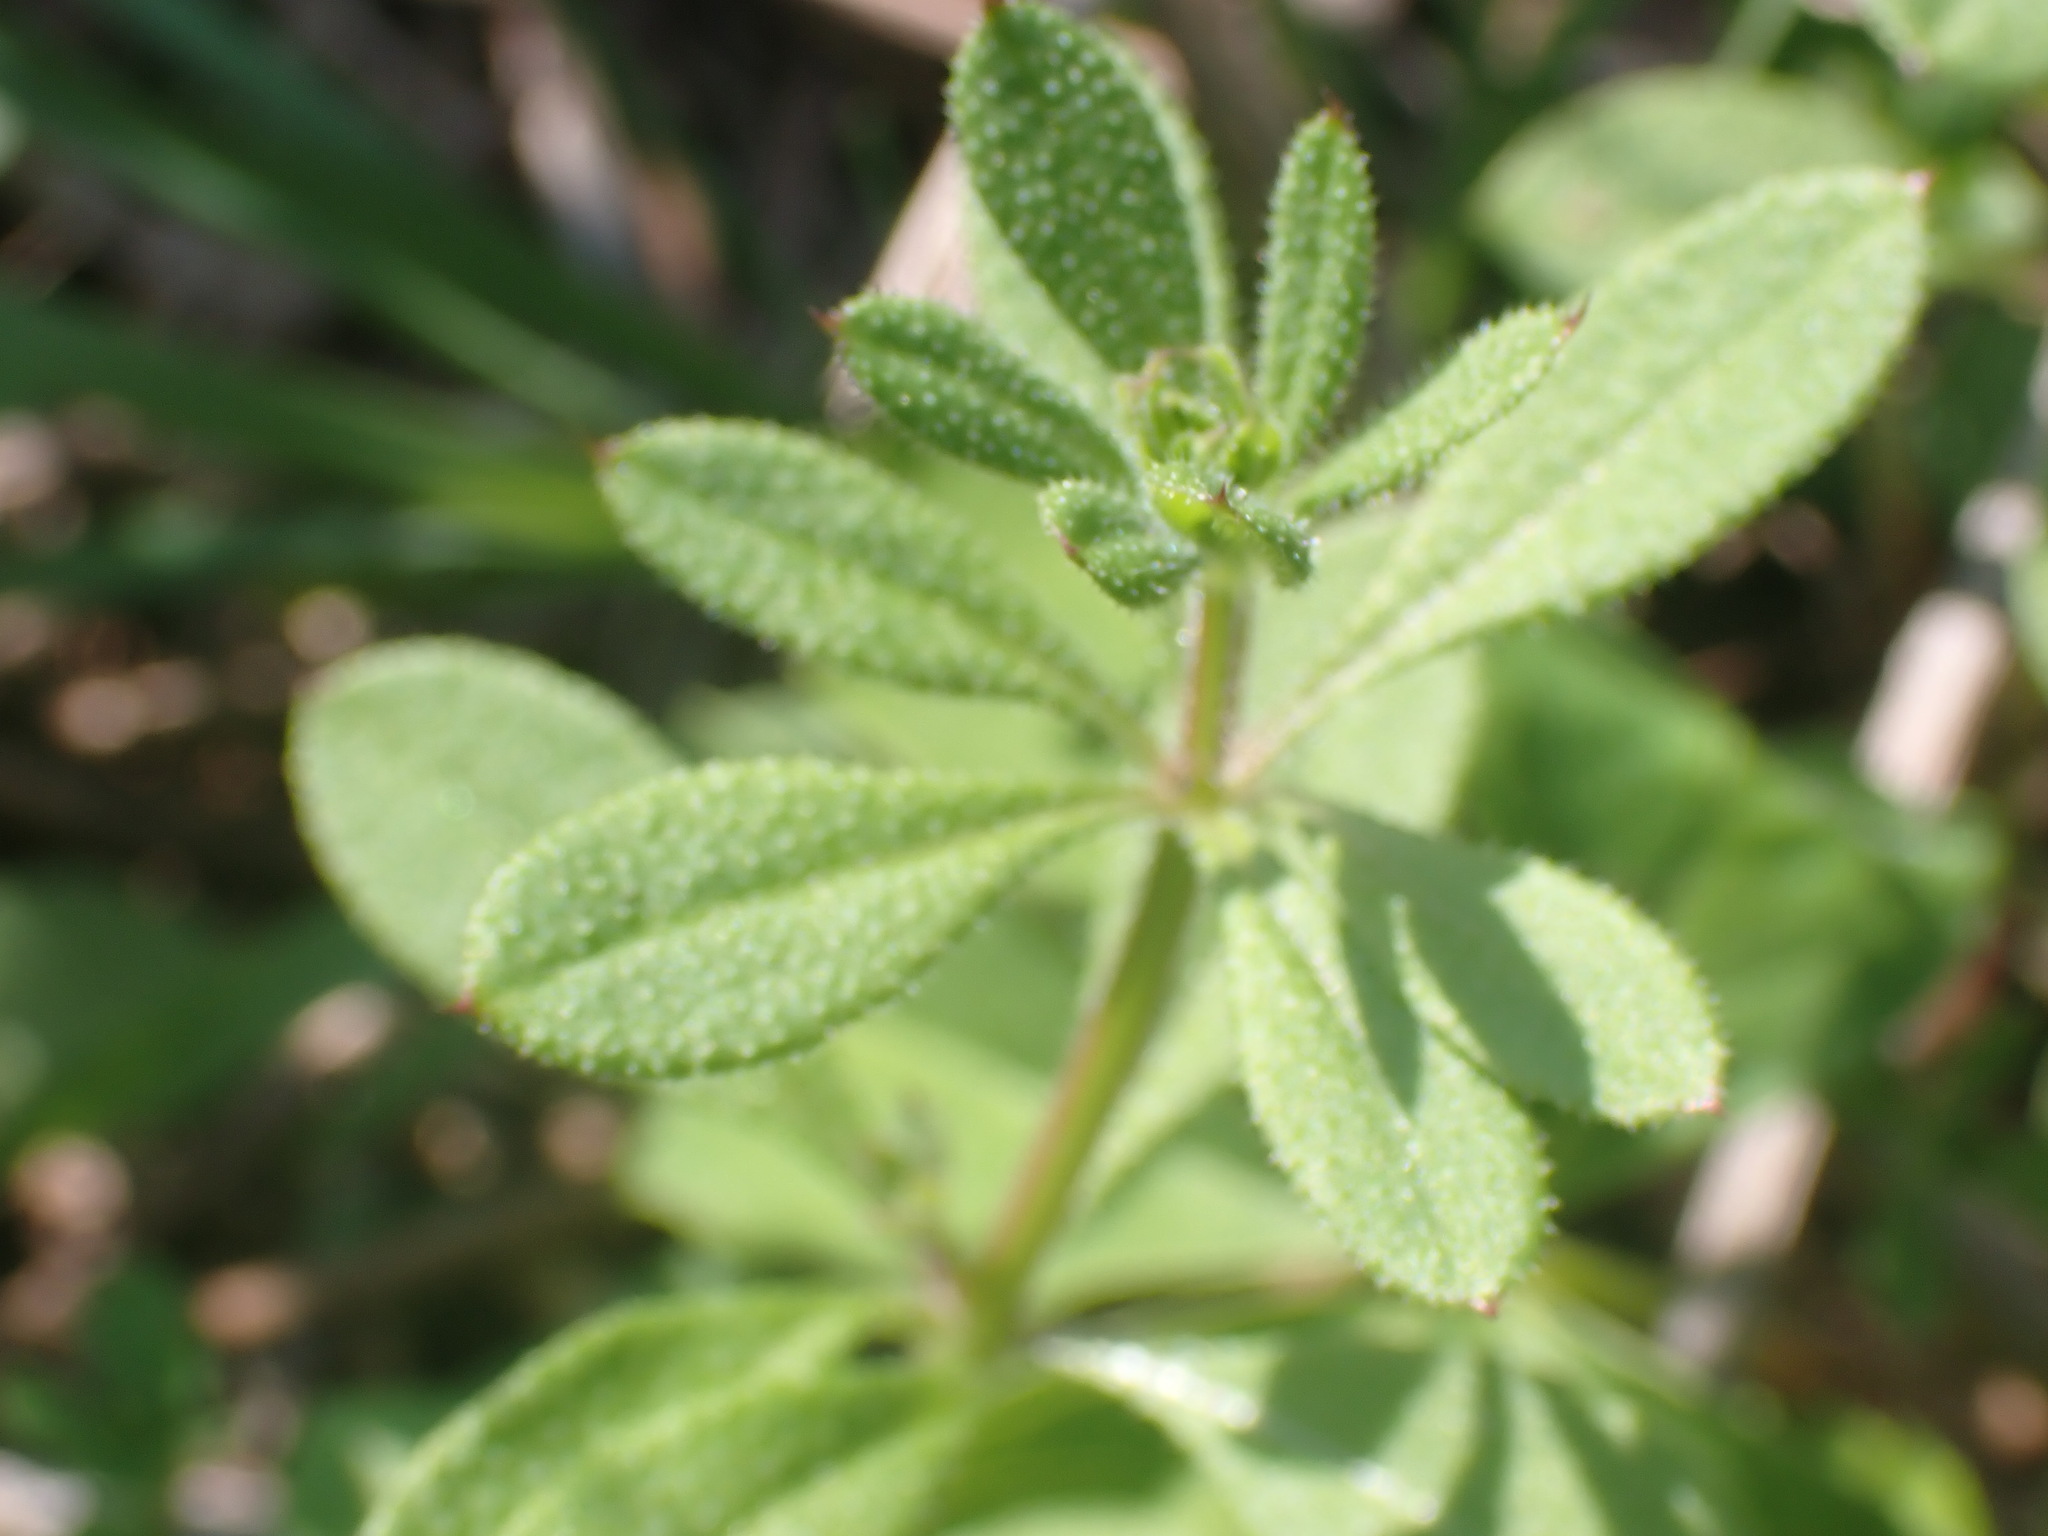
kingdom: Plantae
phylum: Tracheophyta
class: Magnoliopsida
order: Gentianales
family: Rubiaceae
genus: Galium
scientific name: Galium aparine
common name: Cleavers
